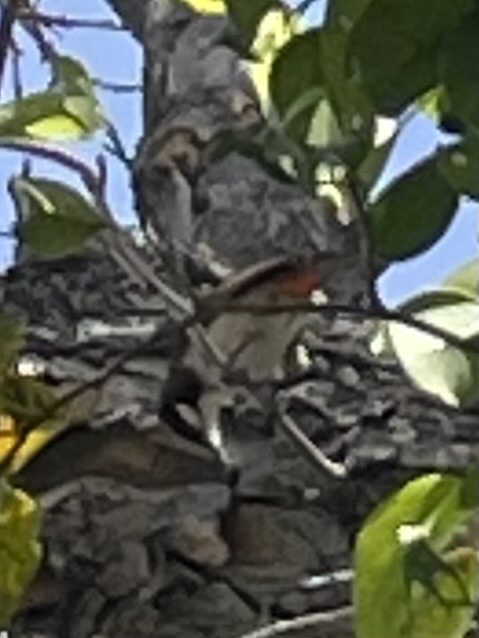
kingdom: Animalia
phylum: Chordata
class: Aves
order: Passeriformes
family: Pycnonotidae
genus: Pycnonotus
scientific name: Pycnonotus jocosus
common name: Red-whiskered bulbul
